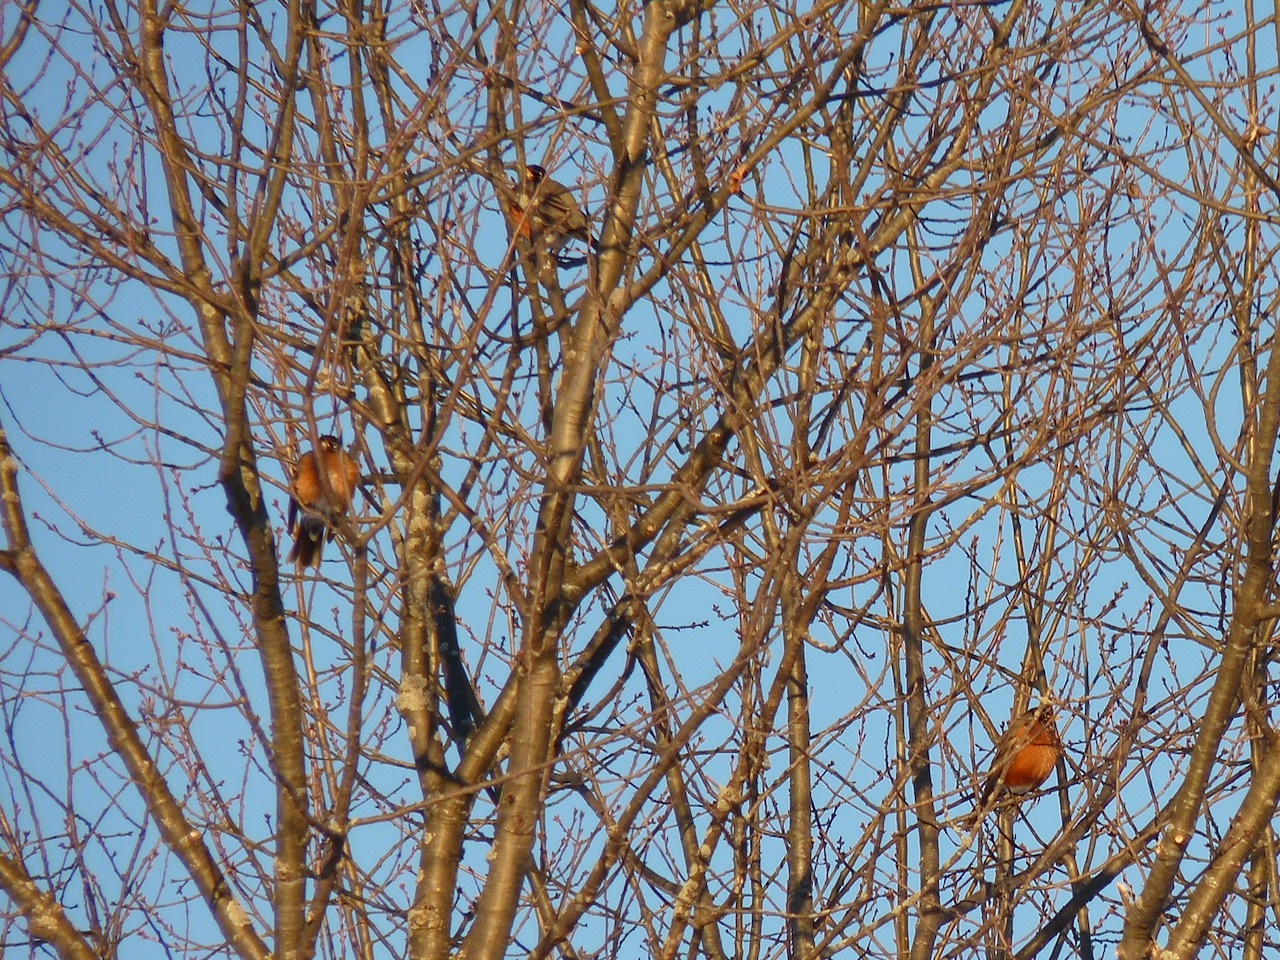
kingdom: Animalia
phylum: Chordata
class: Aves
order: Passeriformes
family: Turdidae
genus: Turdus
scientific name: Turdus migratorius
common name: American robin
